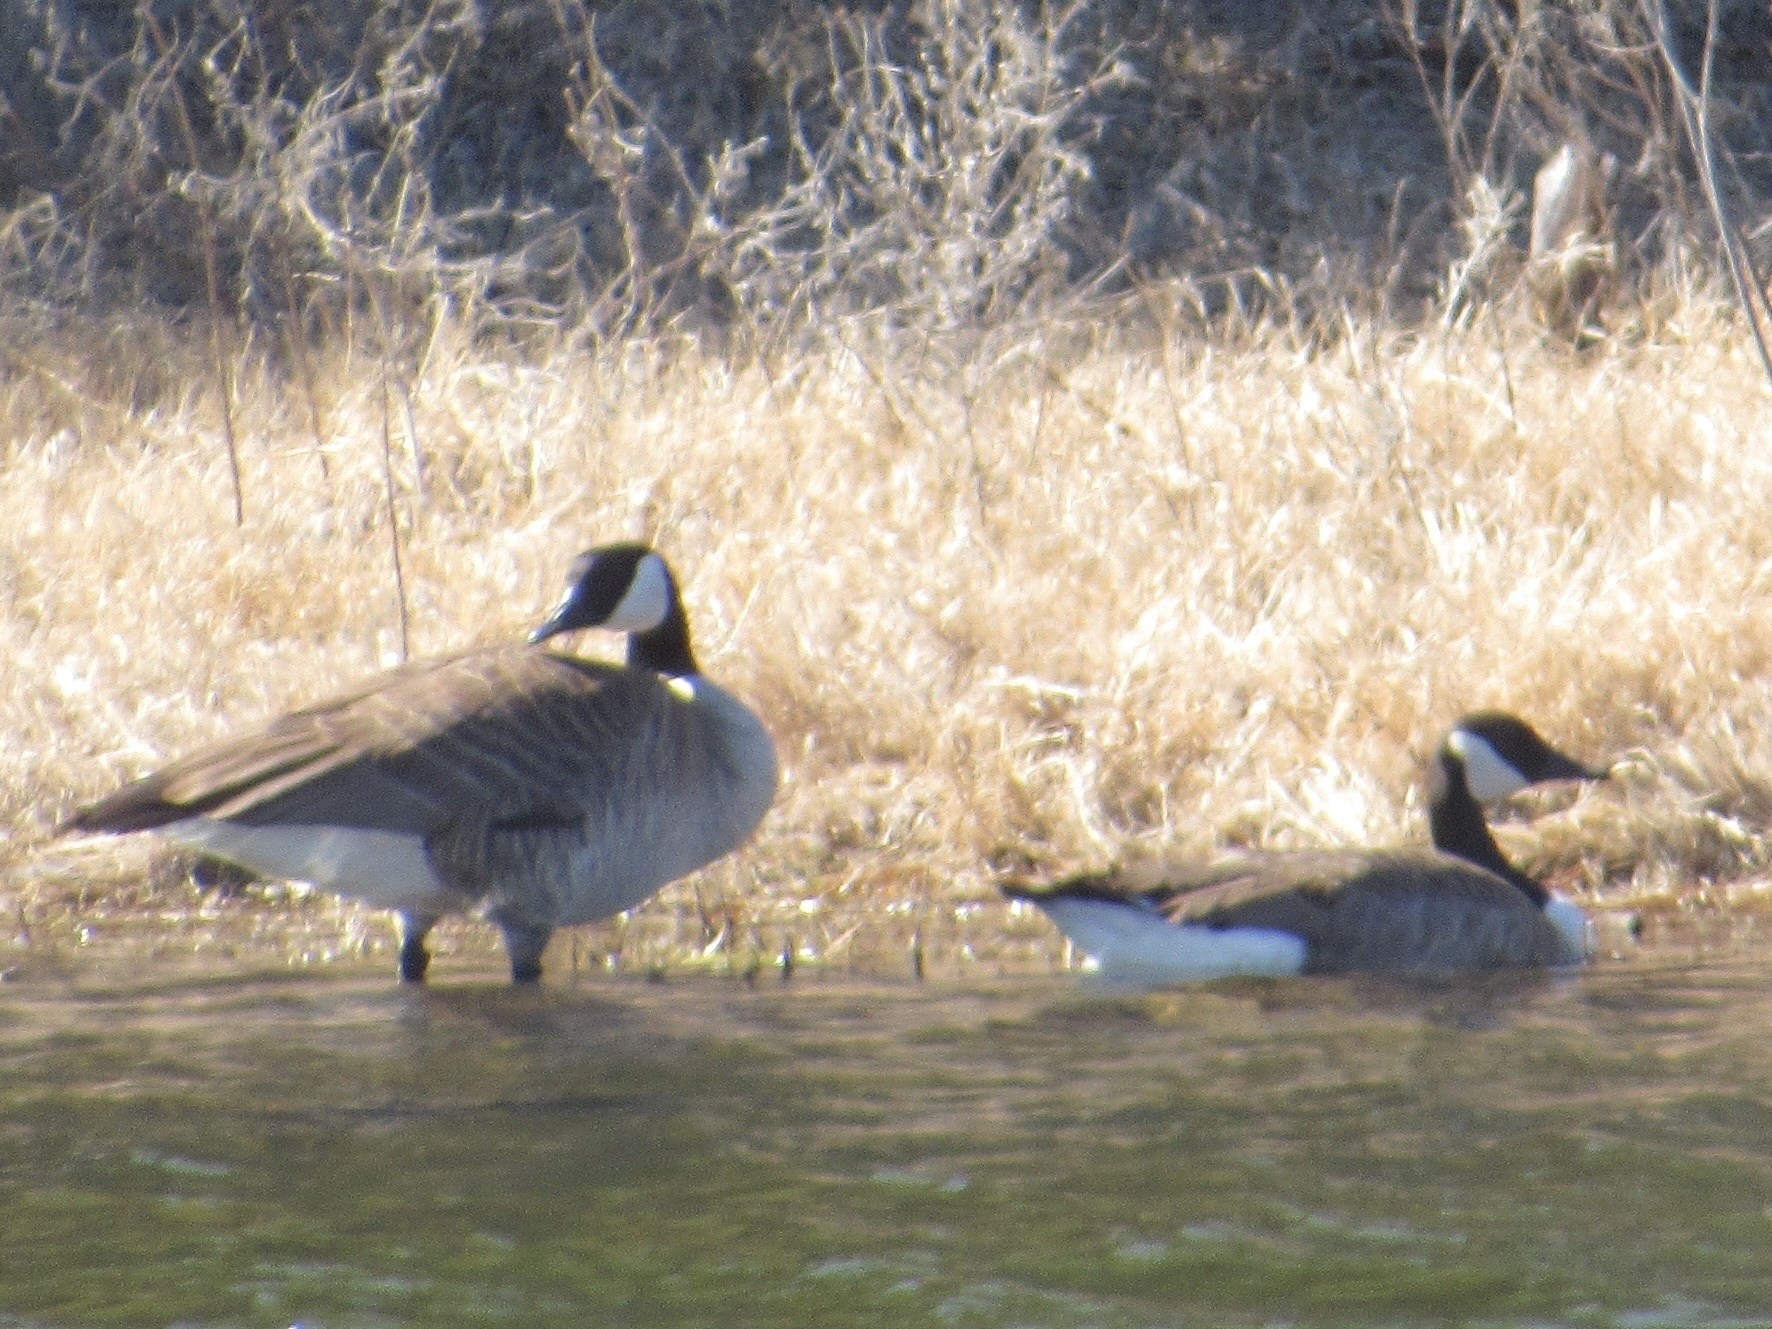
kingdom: Animalia
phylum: Chordata
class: Aves
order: Anseriformes
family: Anatidae
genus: Branta
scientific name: Branta canadensis
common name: Canada goose
